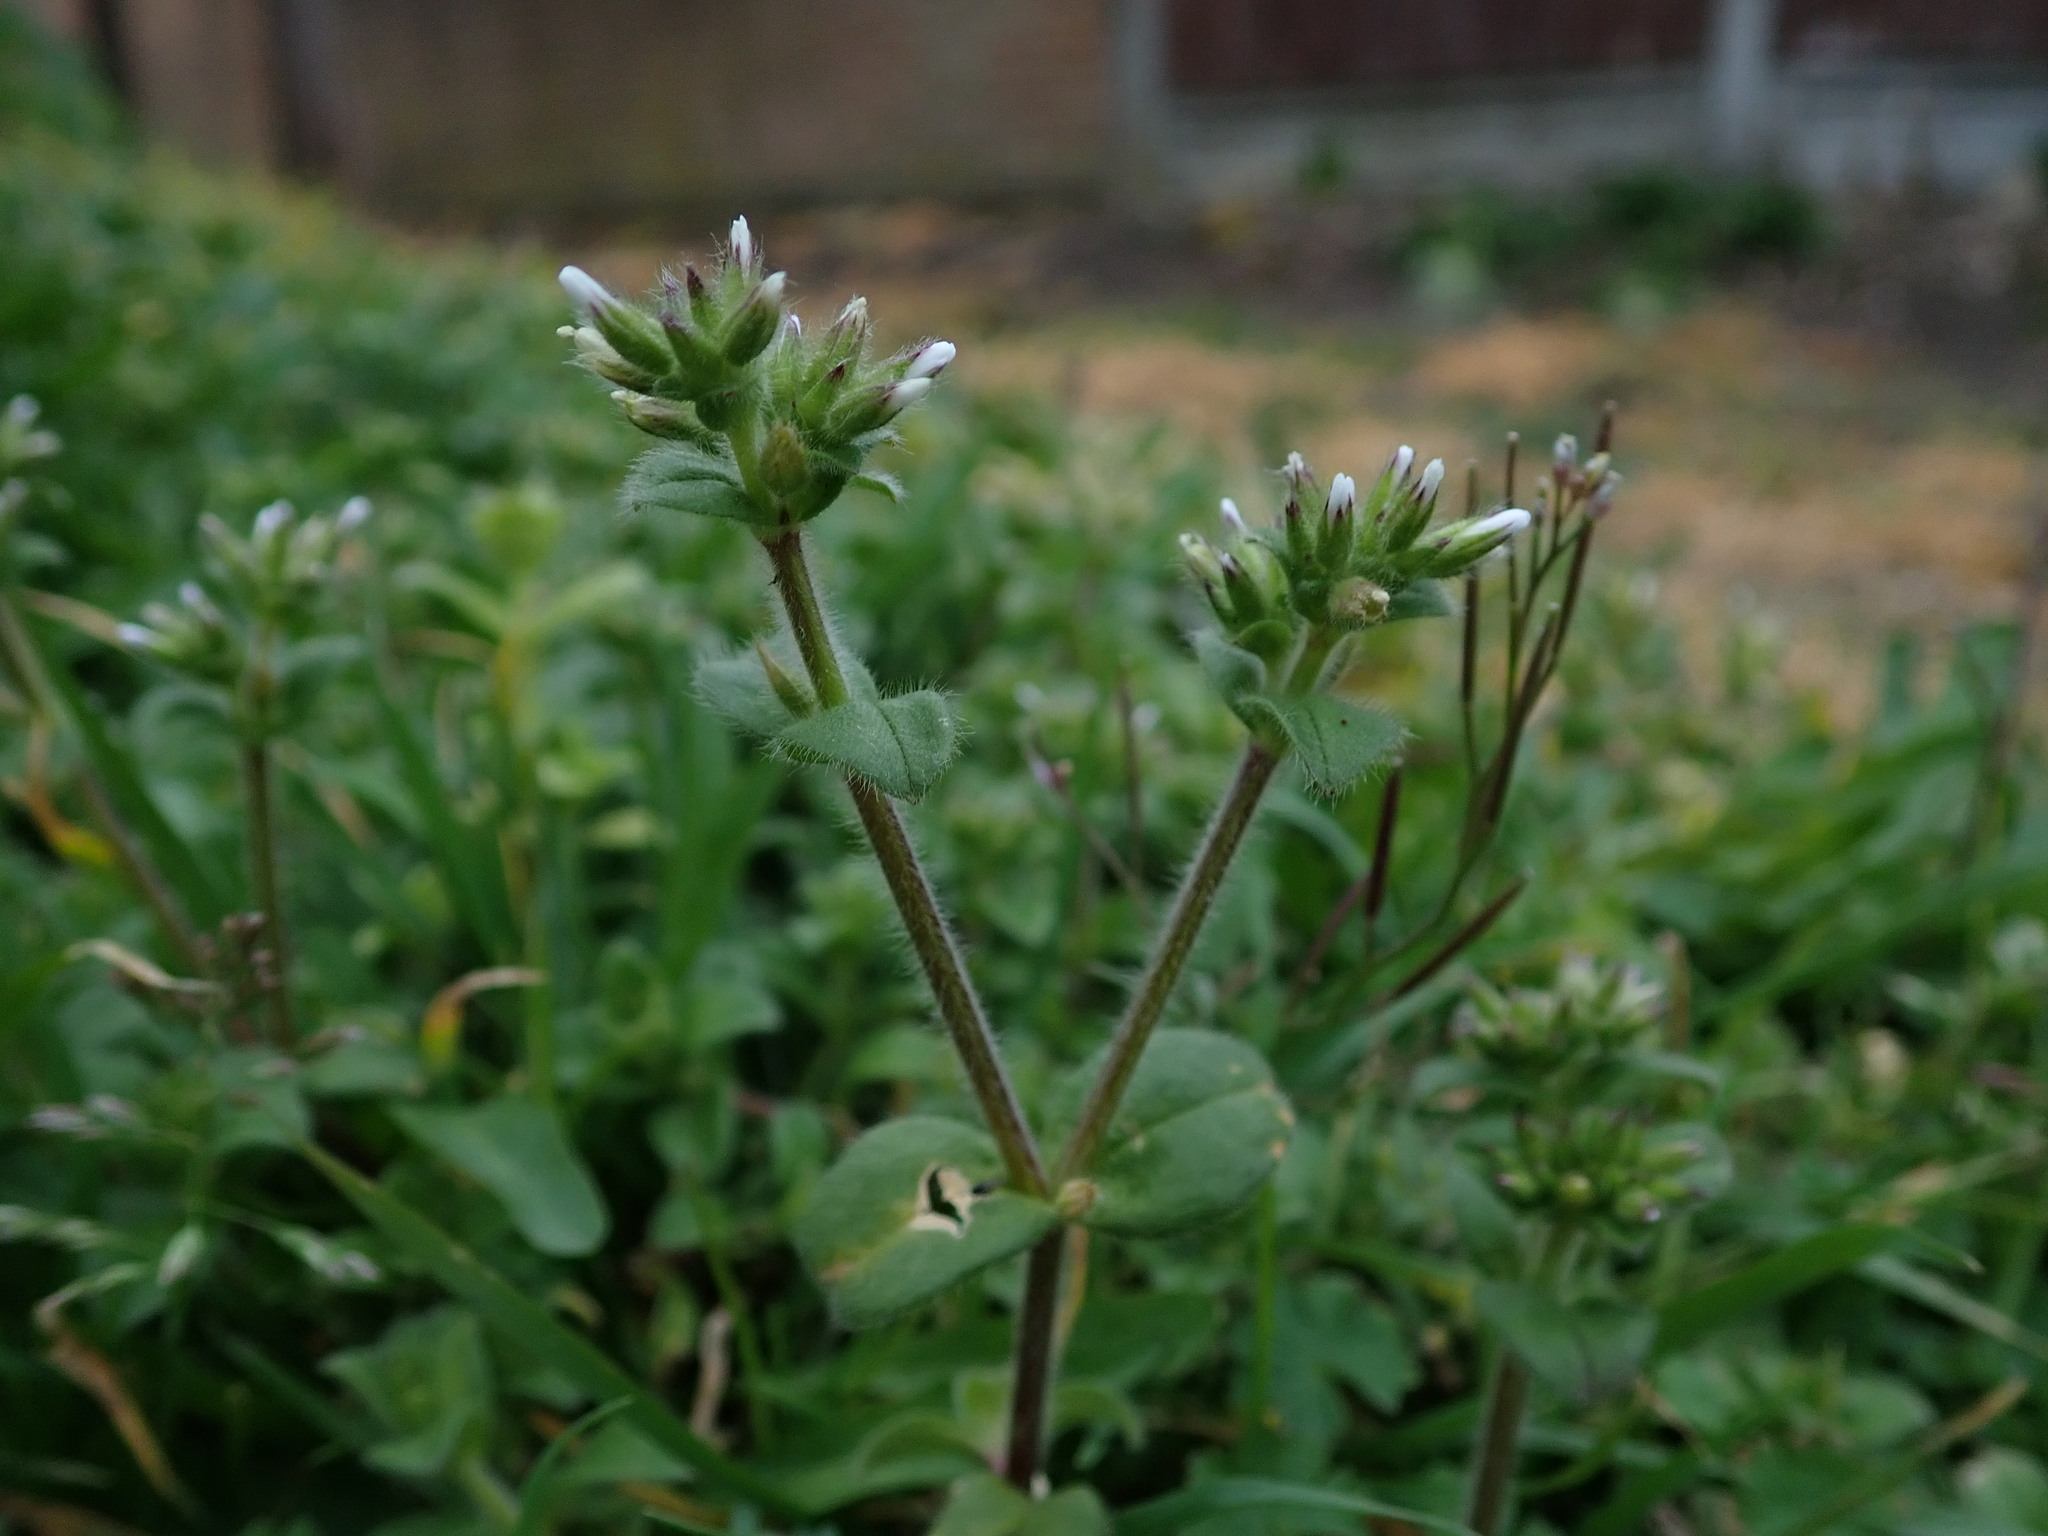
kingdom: Plantae
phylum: Tracheophyta
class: Magnoliopsida
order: Caryophyllales
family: Caryophyllaceae
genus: Cerastium
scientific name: Cerastium glomeratum
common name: Sticky chickweed
